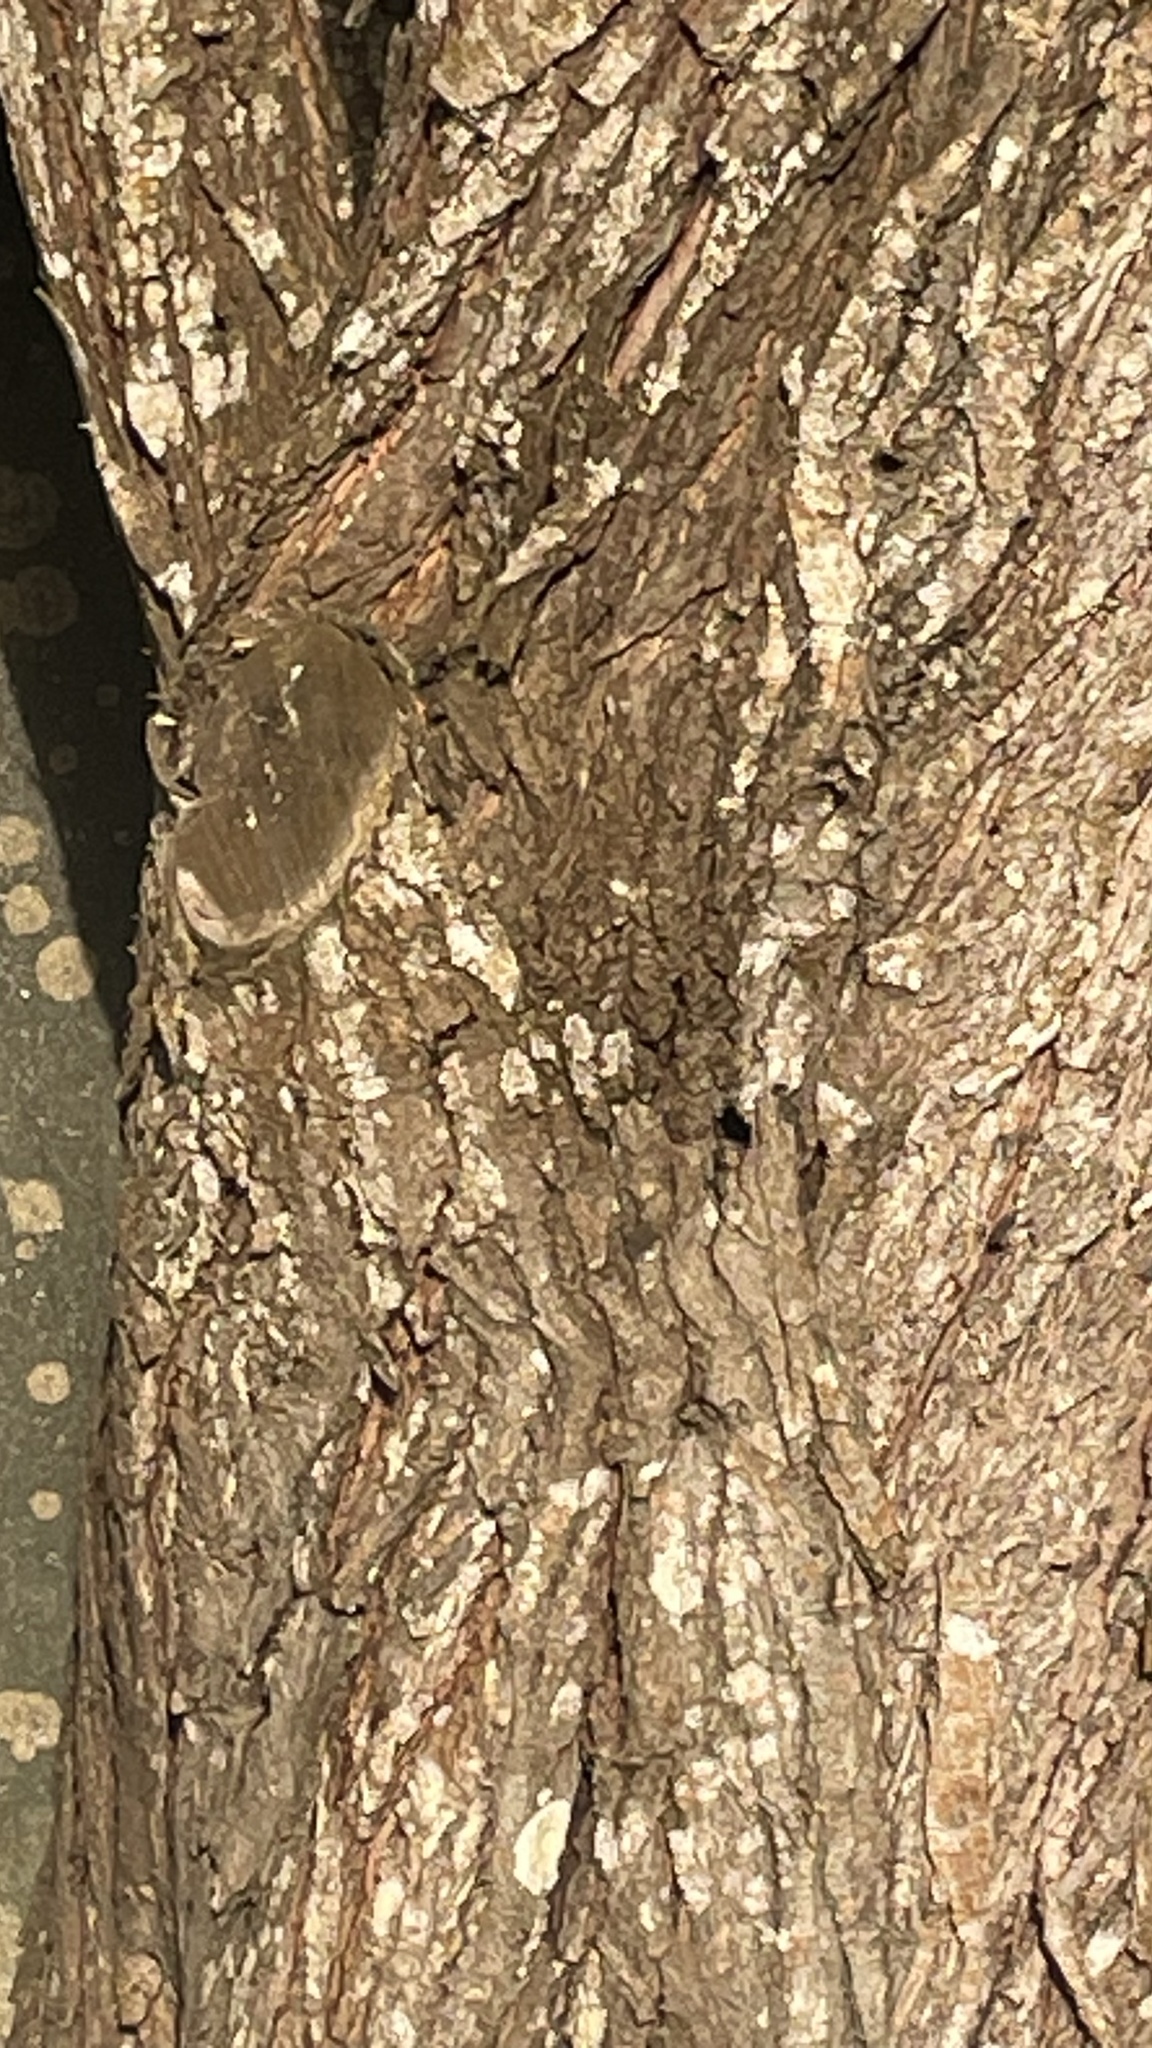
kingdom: Plantae
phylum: Tracheophyta
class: Magnoliopsida
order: Fabales
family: Fabaceae
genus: Ebenopsis
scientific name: Ebenopsis ebano
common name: Ebony blackbead
